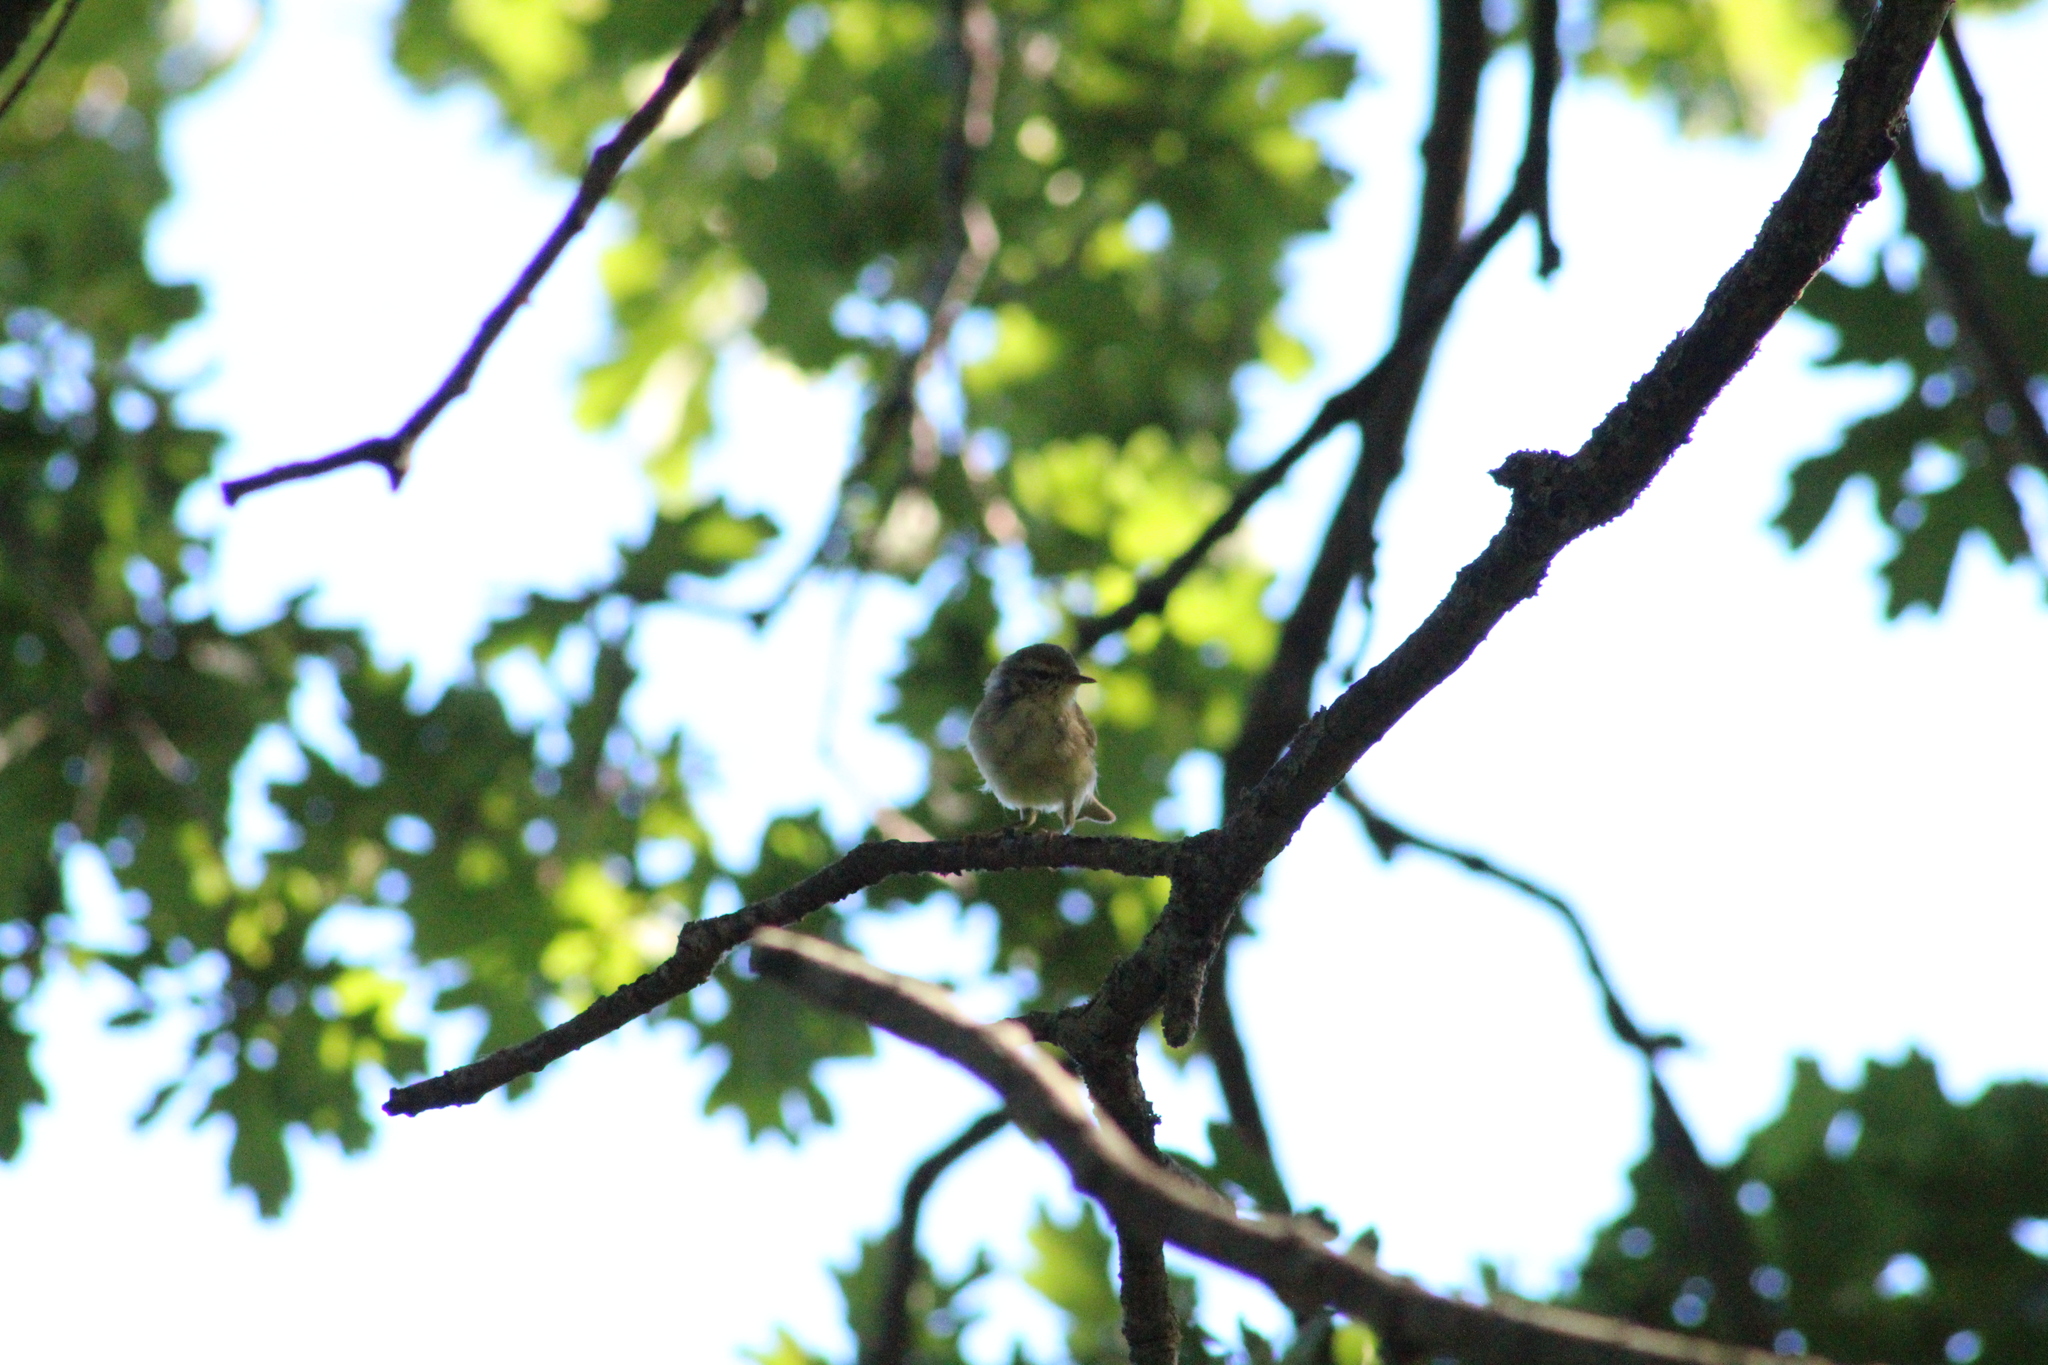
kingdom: Animalia
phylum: Chordata
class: Aves
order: Passeriformes
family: Phylloscopidae
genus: Phylloscopus
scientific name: Phylloscopus collybita
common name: Common chiffchaff
